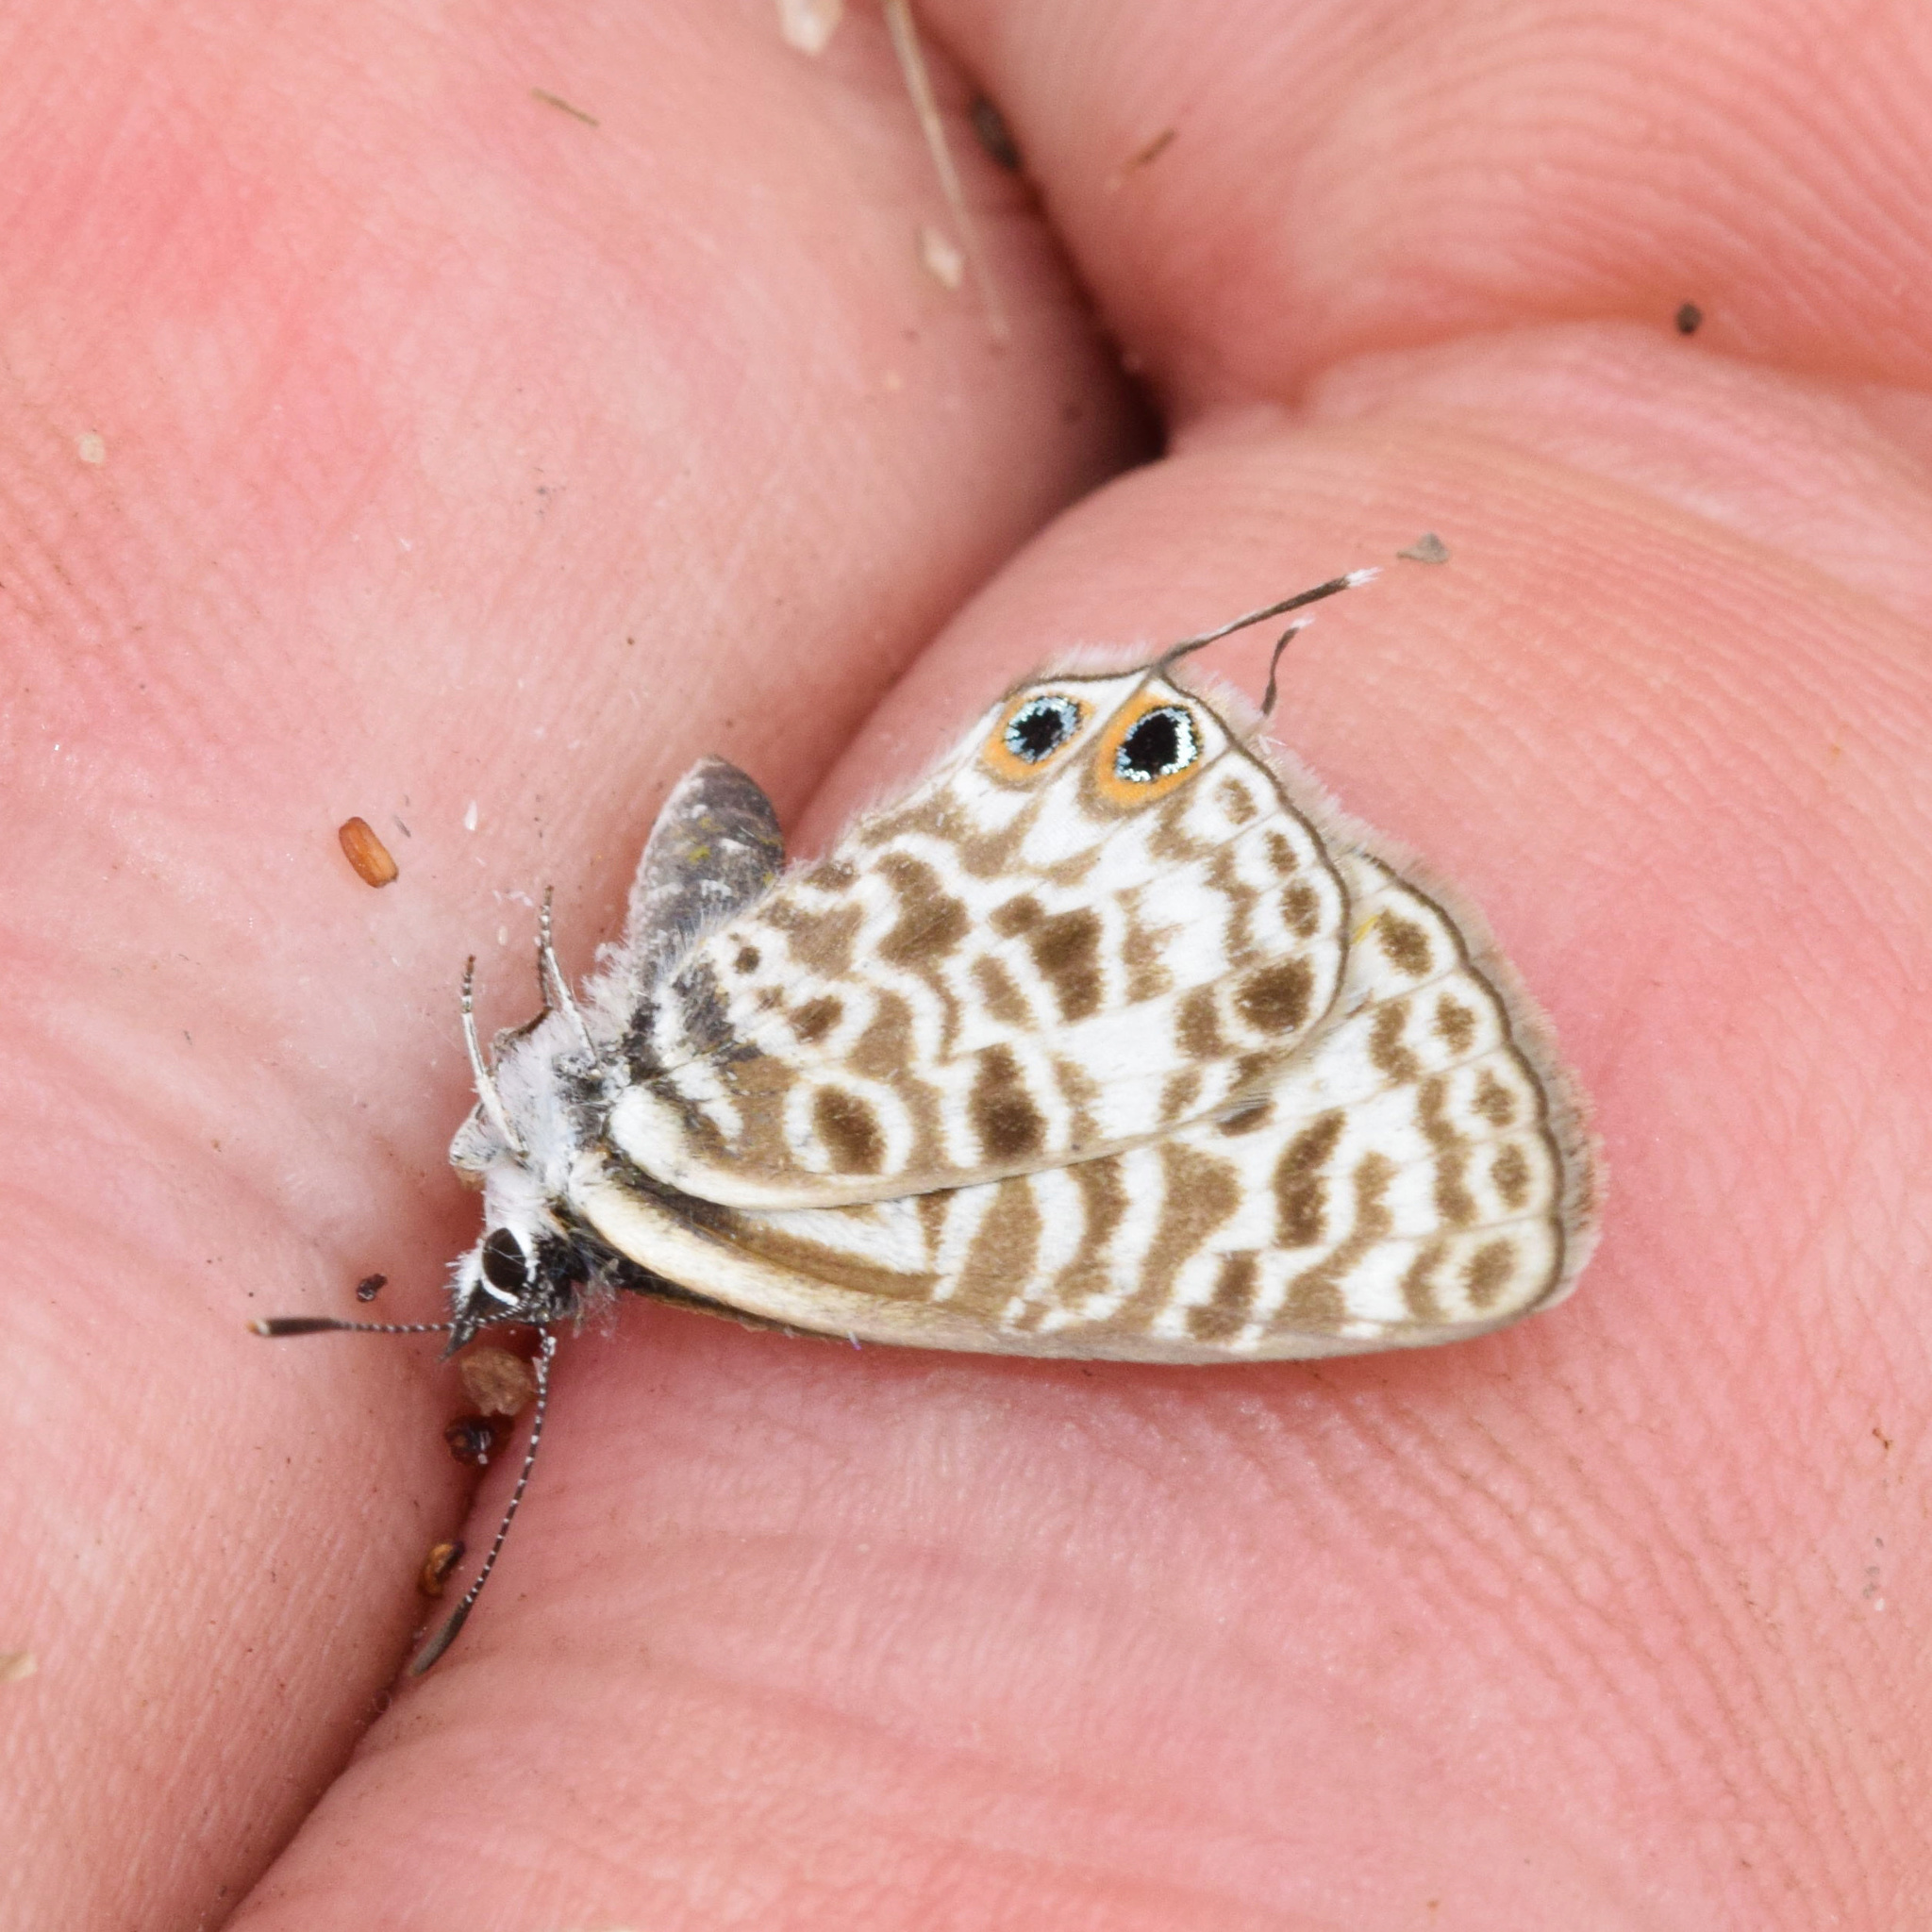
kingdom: Animalia
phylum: Arthropoda
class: Insecta
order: Lepidoptera
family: Lycaenidae
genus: Leptotes
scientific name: Leptotes
